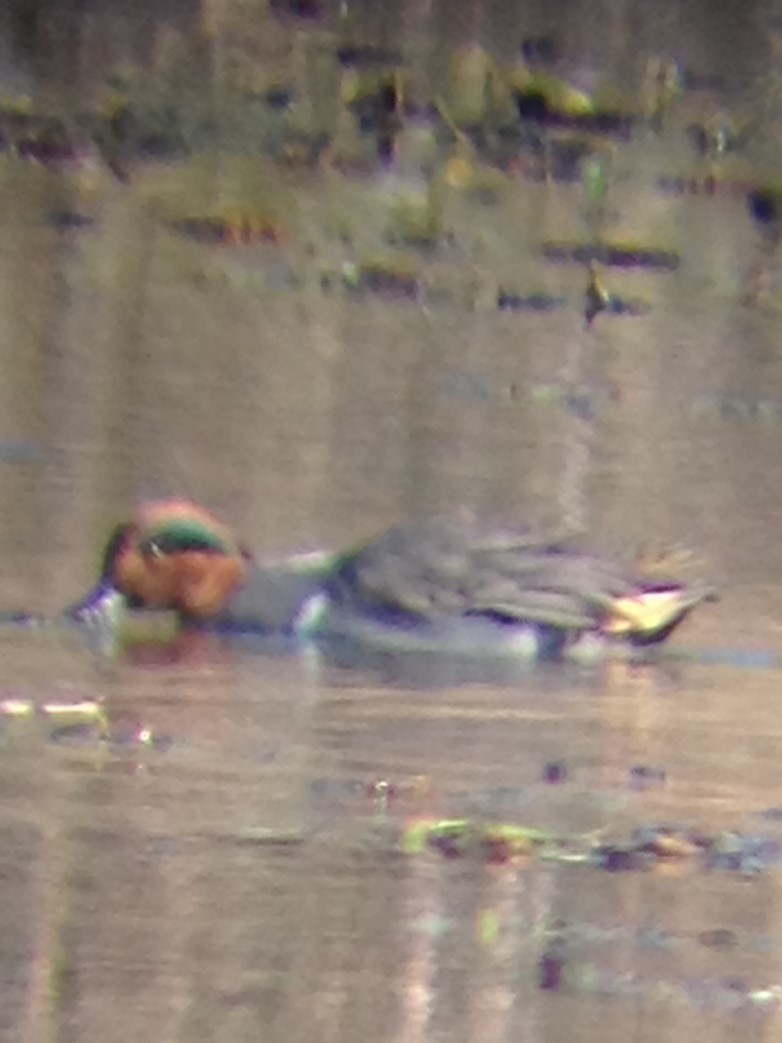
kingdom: Animalia
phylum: Chordata
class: Aves
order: Anseriformes
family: Anatidae
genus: Anas
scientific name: Anas carolinensis
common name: Green-winged teal
